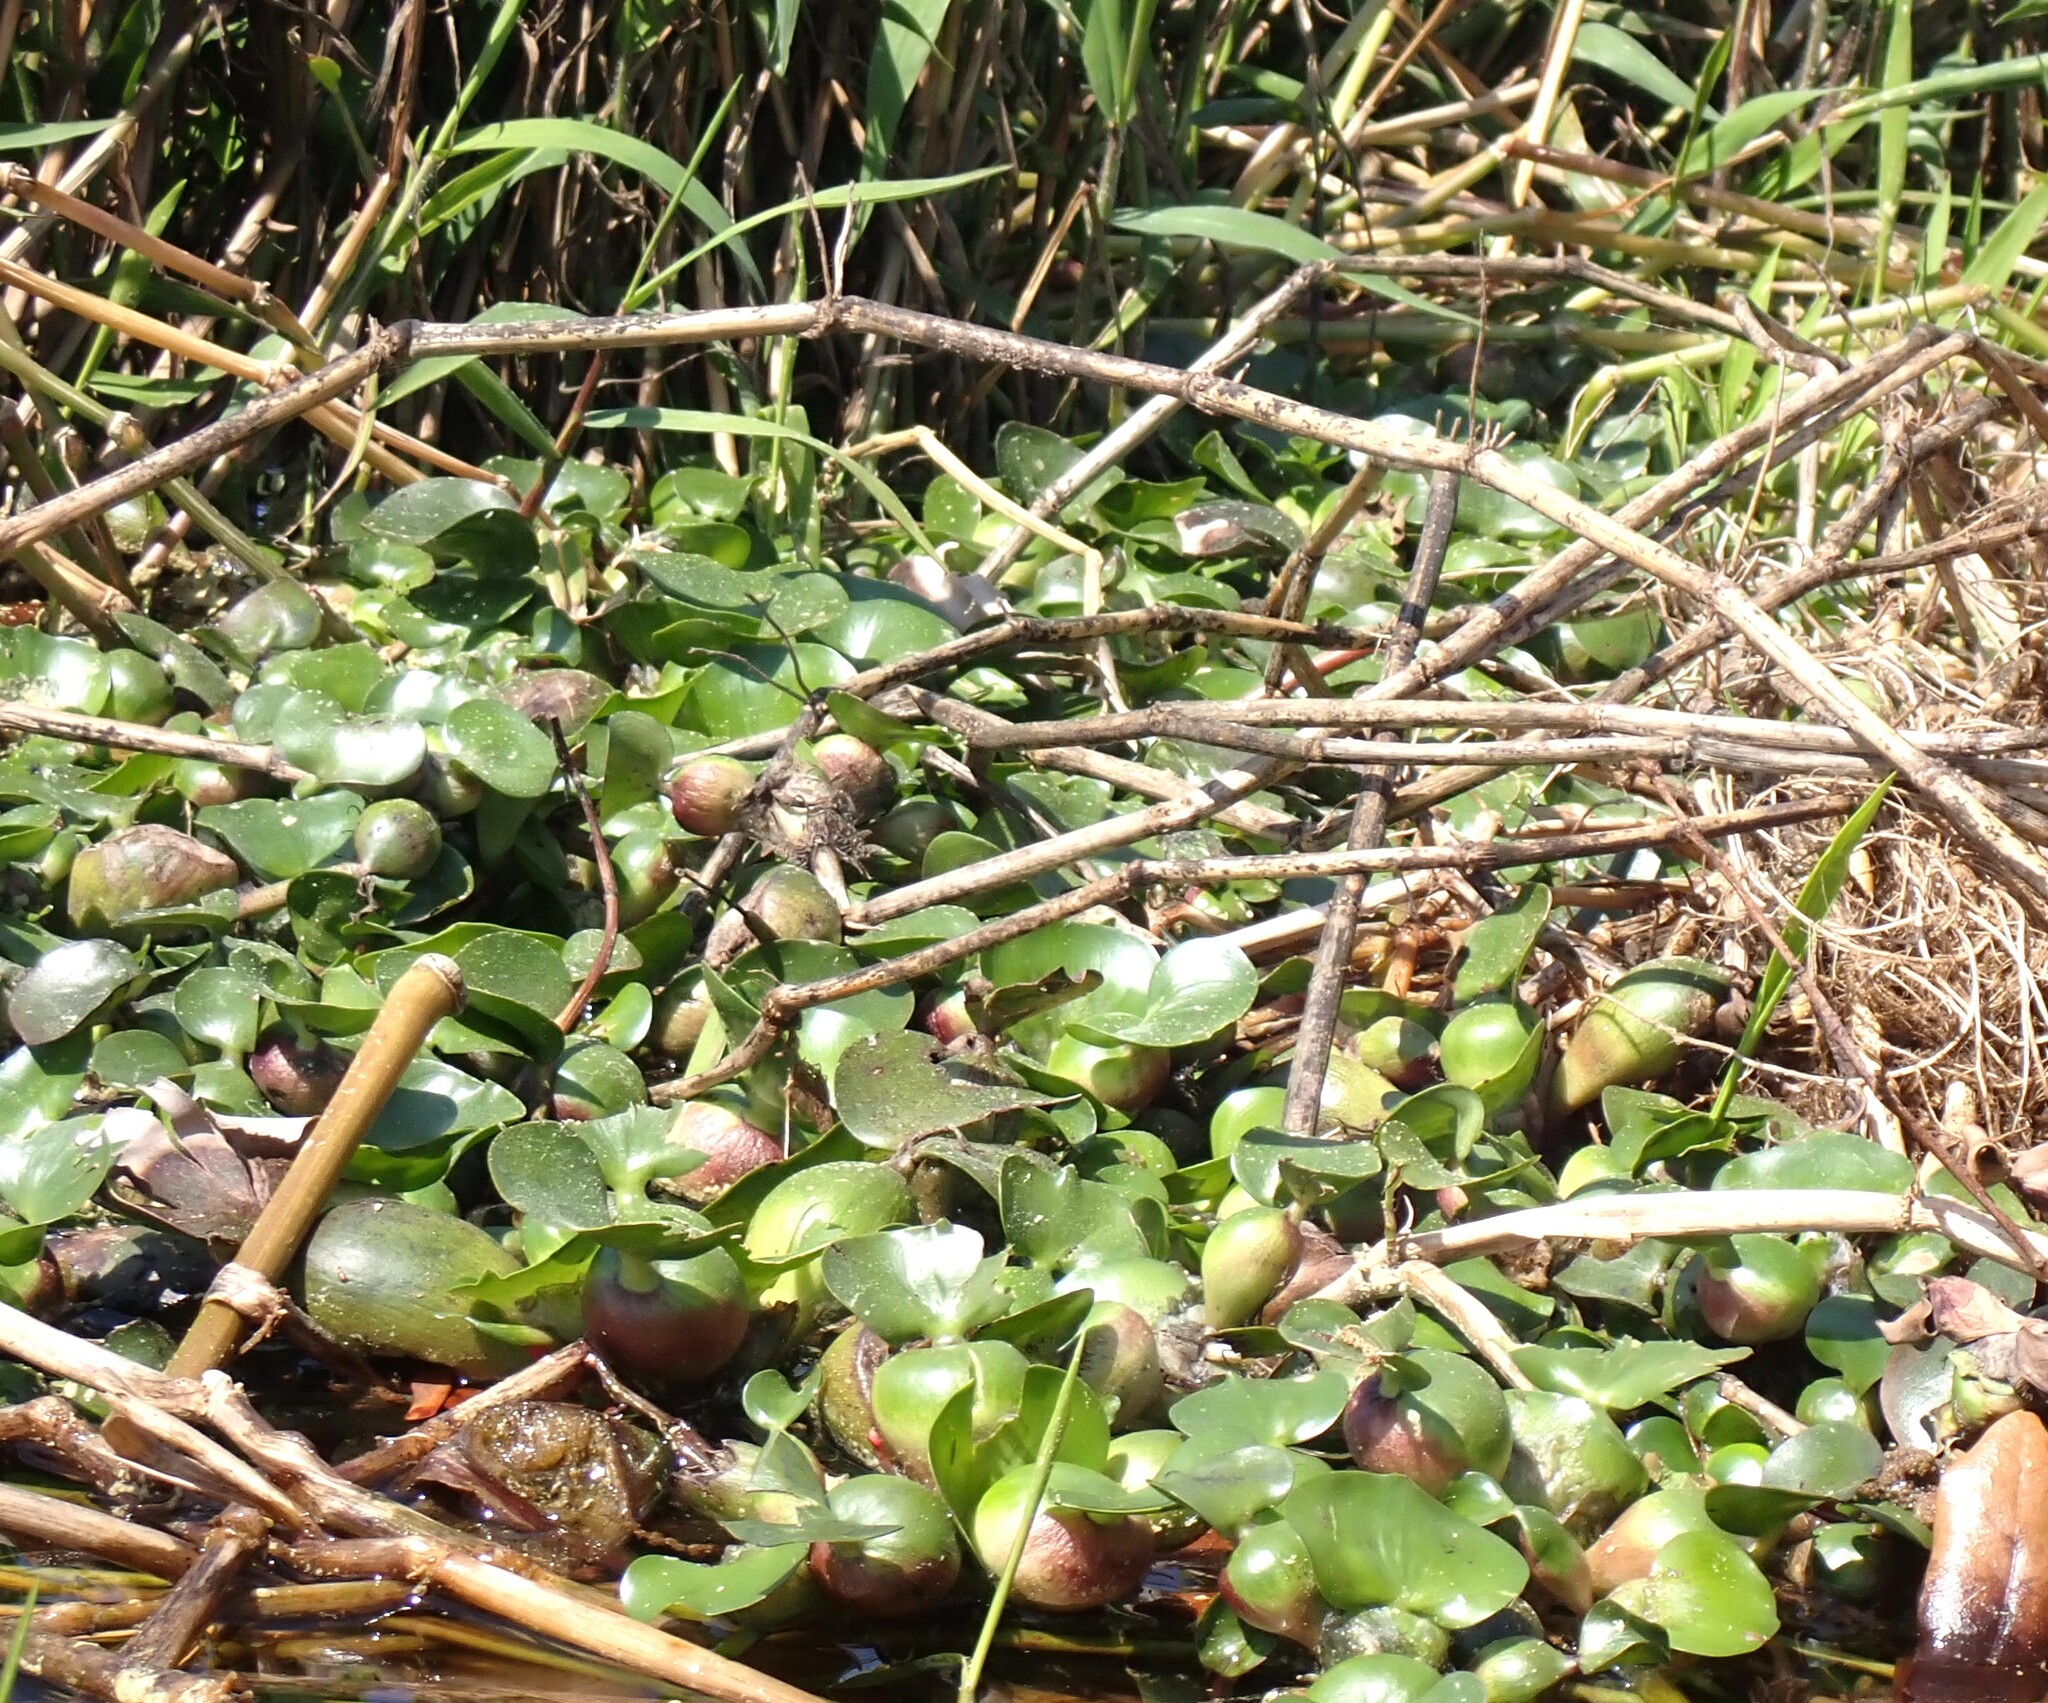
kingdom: Plantae
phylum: Tracheophyta
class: Liliopsida
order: Commelinales
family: Pontederiaceae
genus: Pontederia
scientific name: Pontederia crassipes
